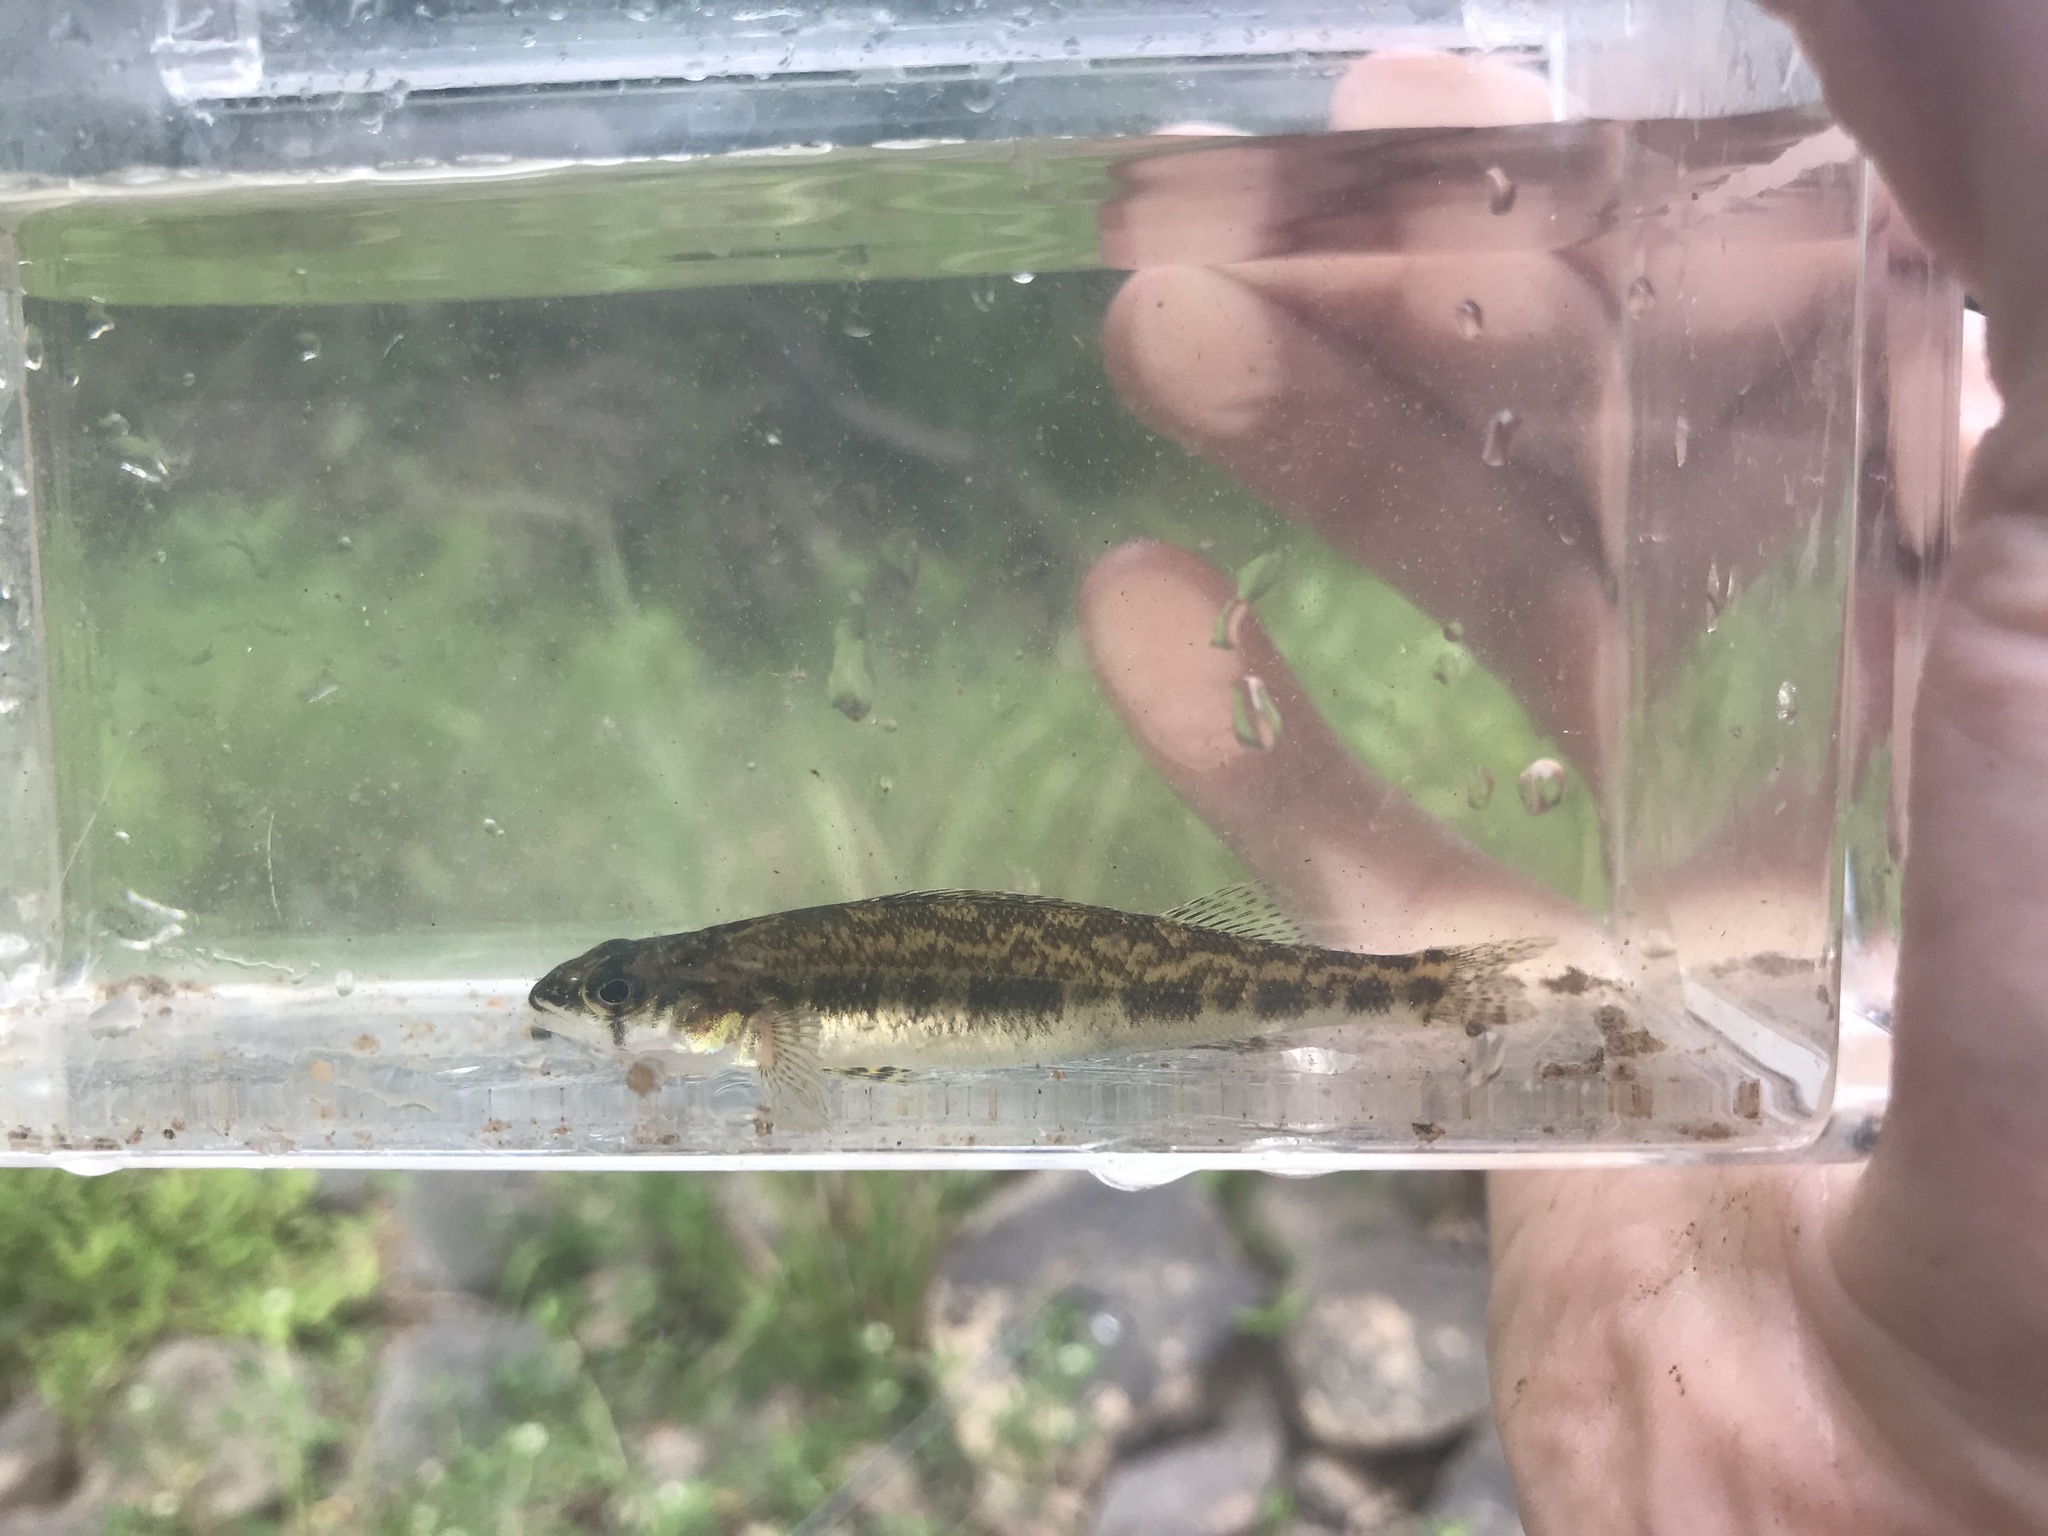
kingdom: Animalia
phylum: Chordata
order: Perciformes
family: Percidae
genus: Percina
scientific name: Percina nevisense
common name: Chainback darter
